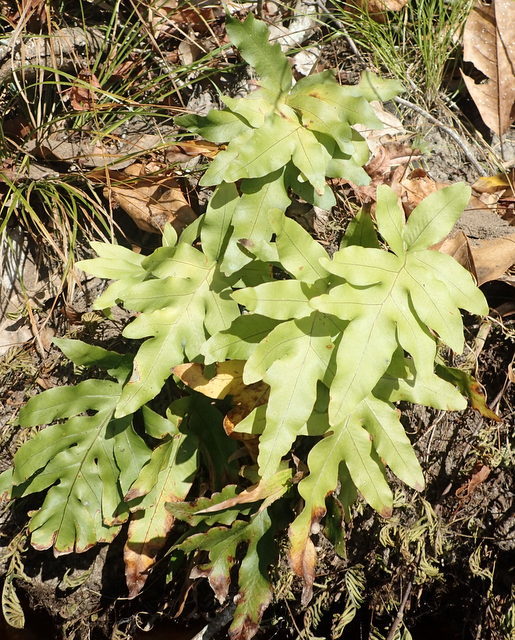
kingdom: Plantae
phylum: Tracheophyta
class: Polypodiopsida
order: Polypodiales
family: Polypodiaceae
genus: Phlebodium
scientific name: Phlebodium aureum
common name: Gold-foot fern
